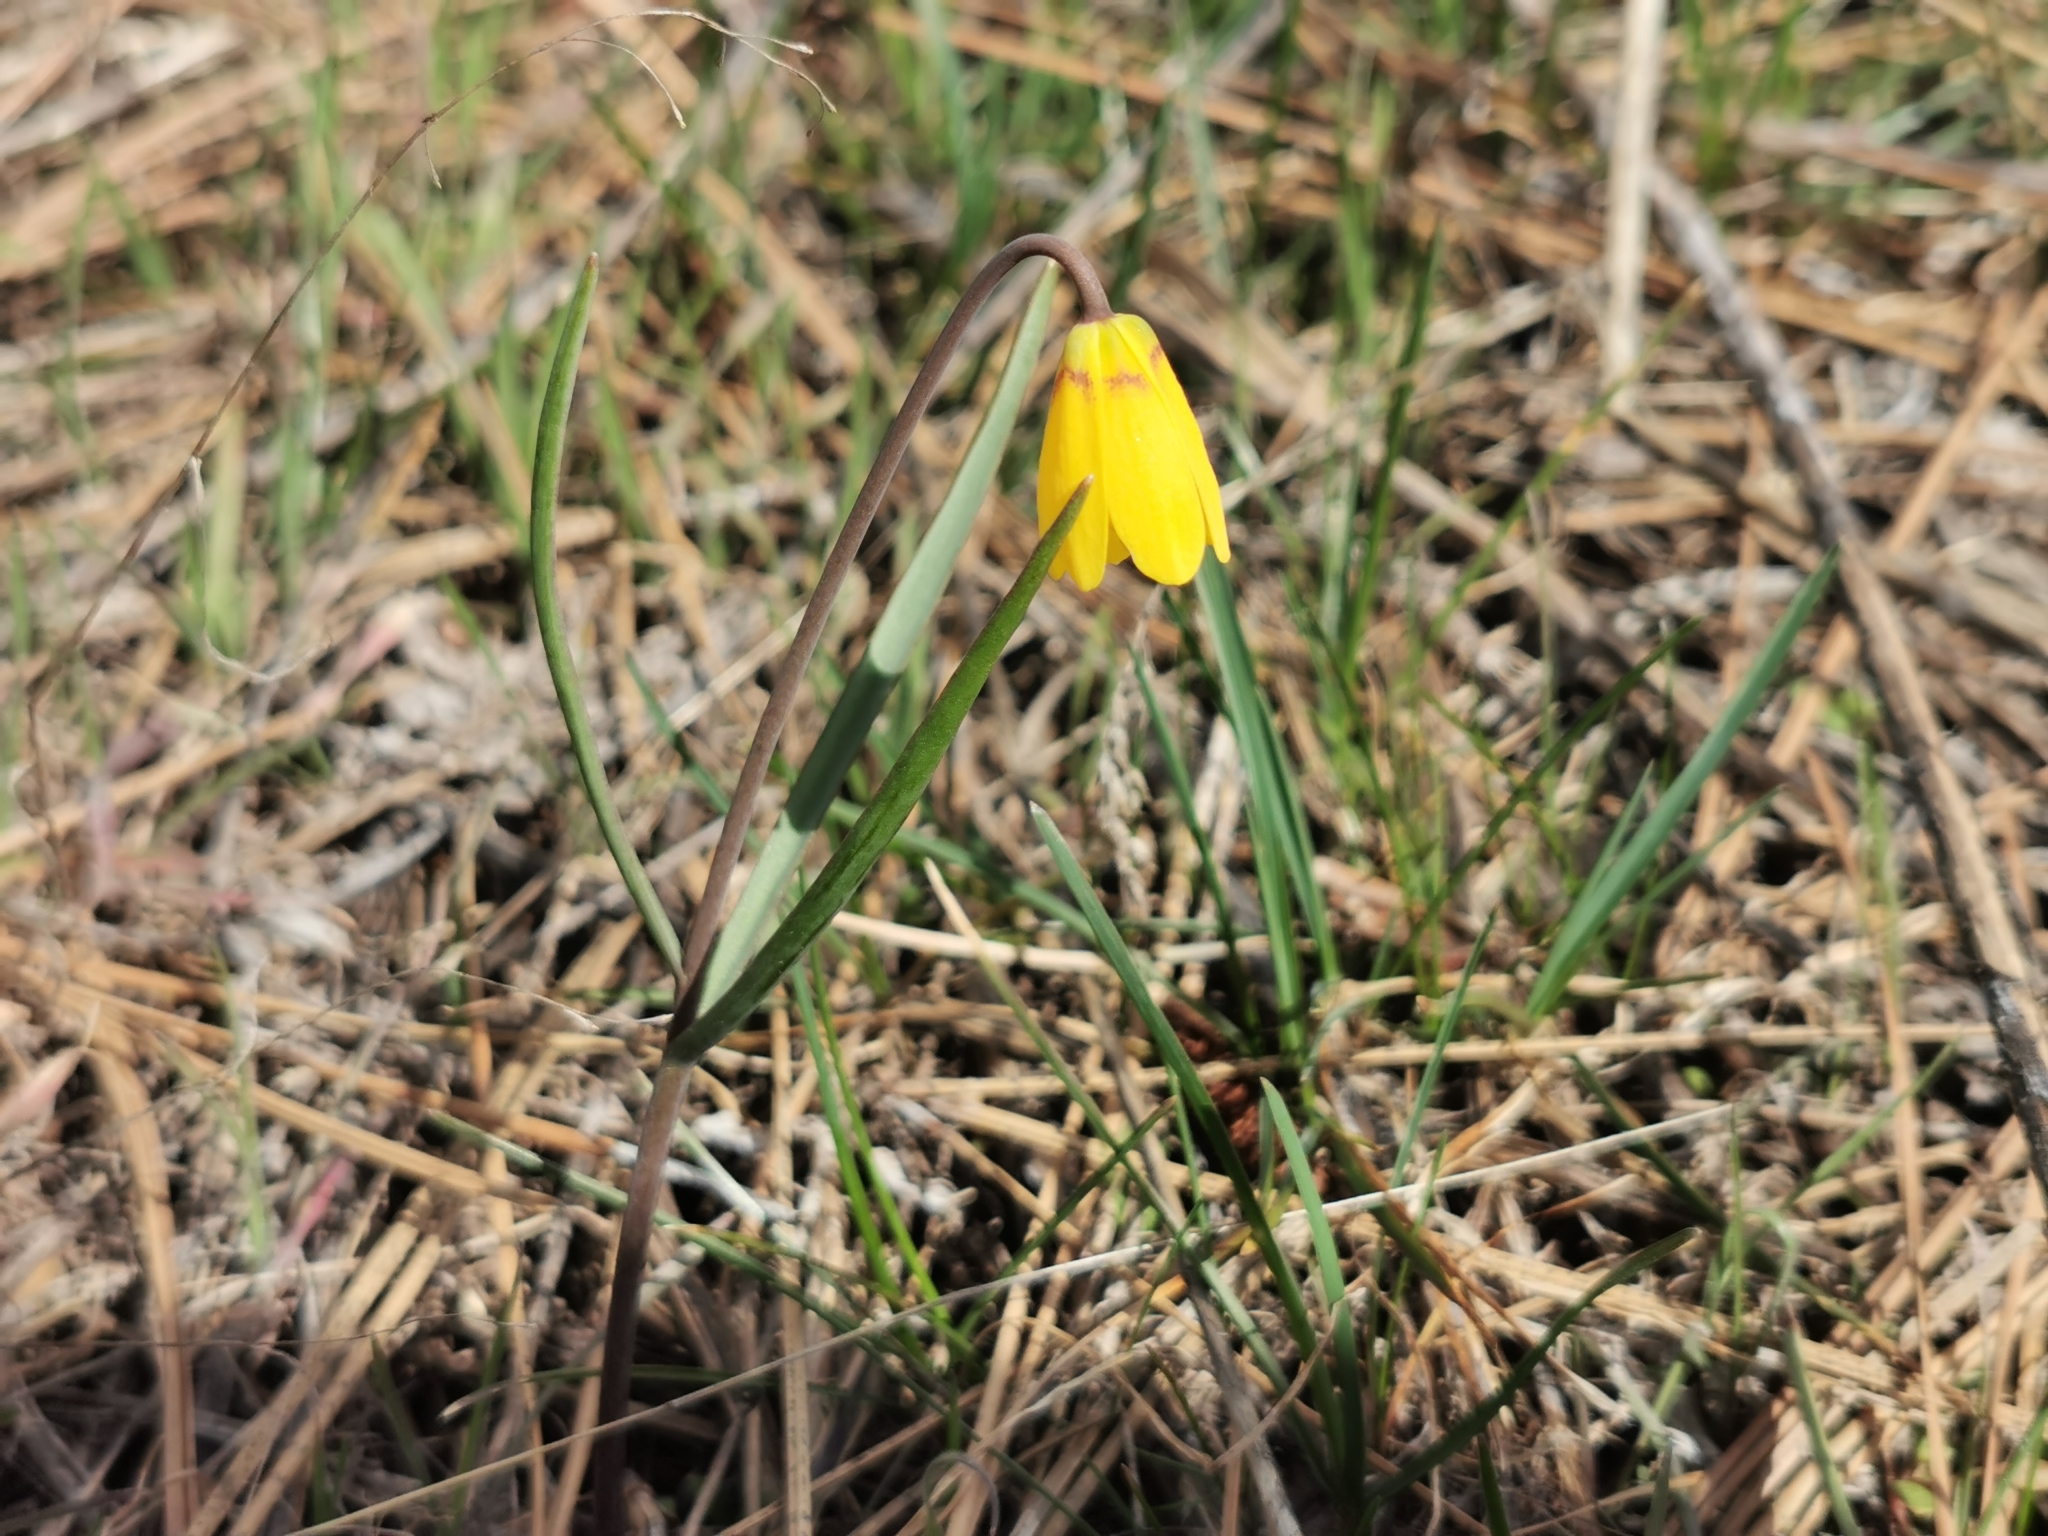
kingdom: Plantae
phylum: Tracheophyta
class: Liliopsida
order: Liliales
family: Liliaceae
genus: Fritillaria
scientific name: Fritillaria pudica
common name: Yellow fritillary
